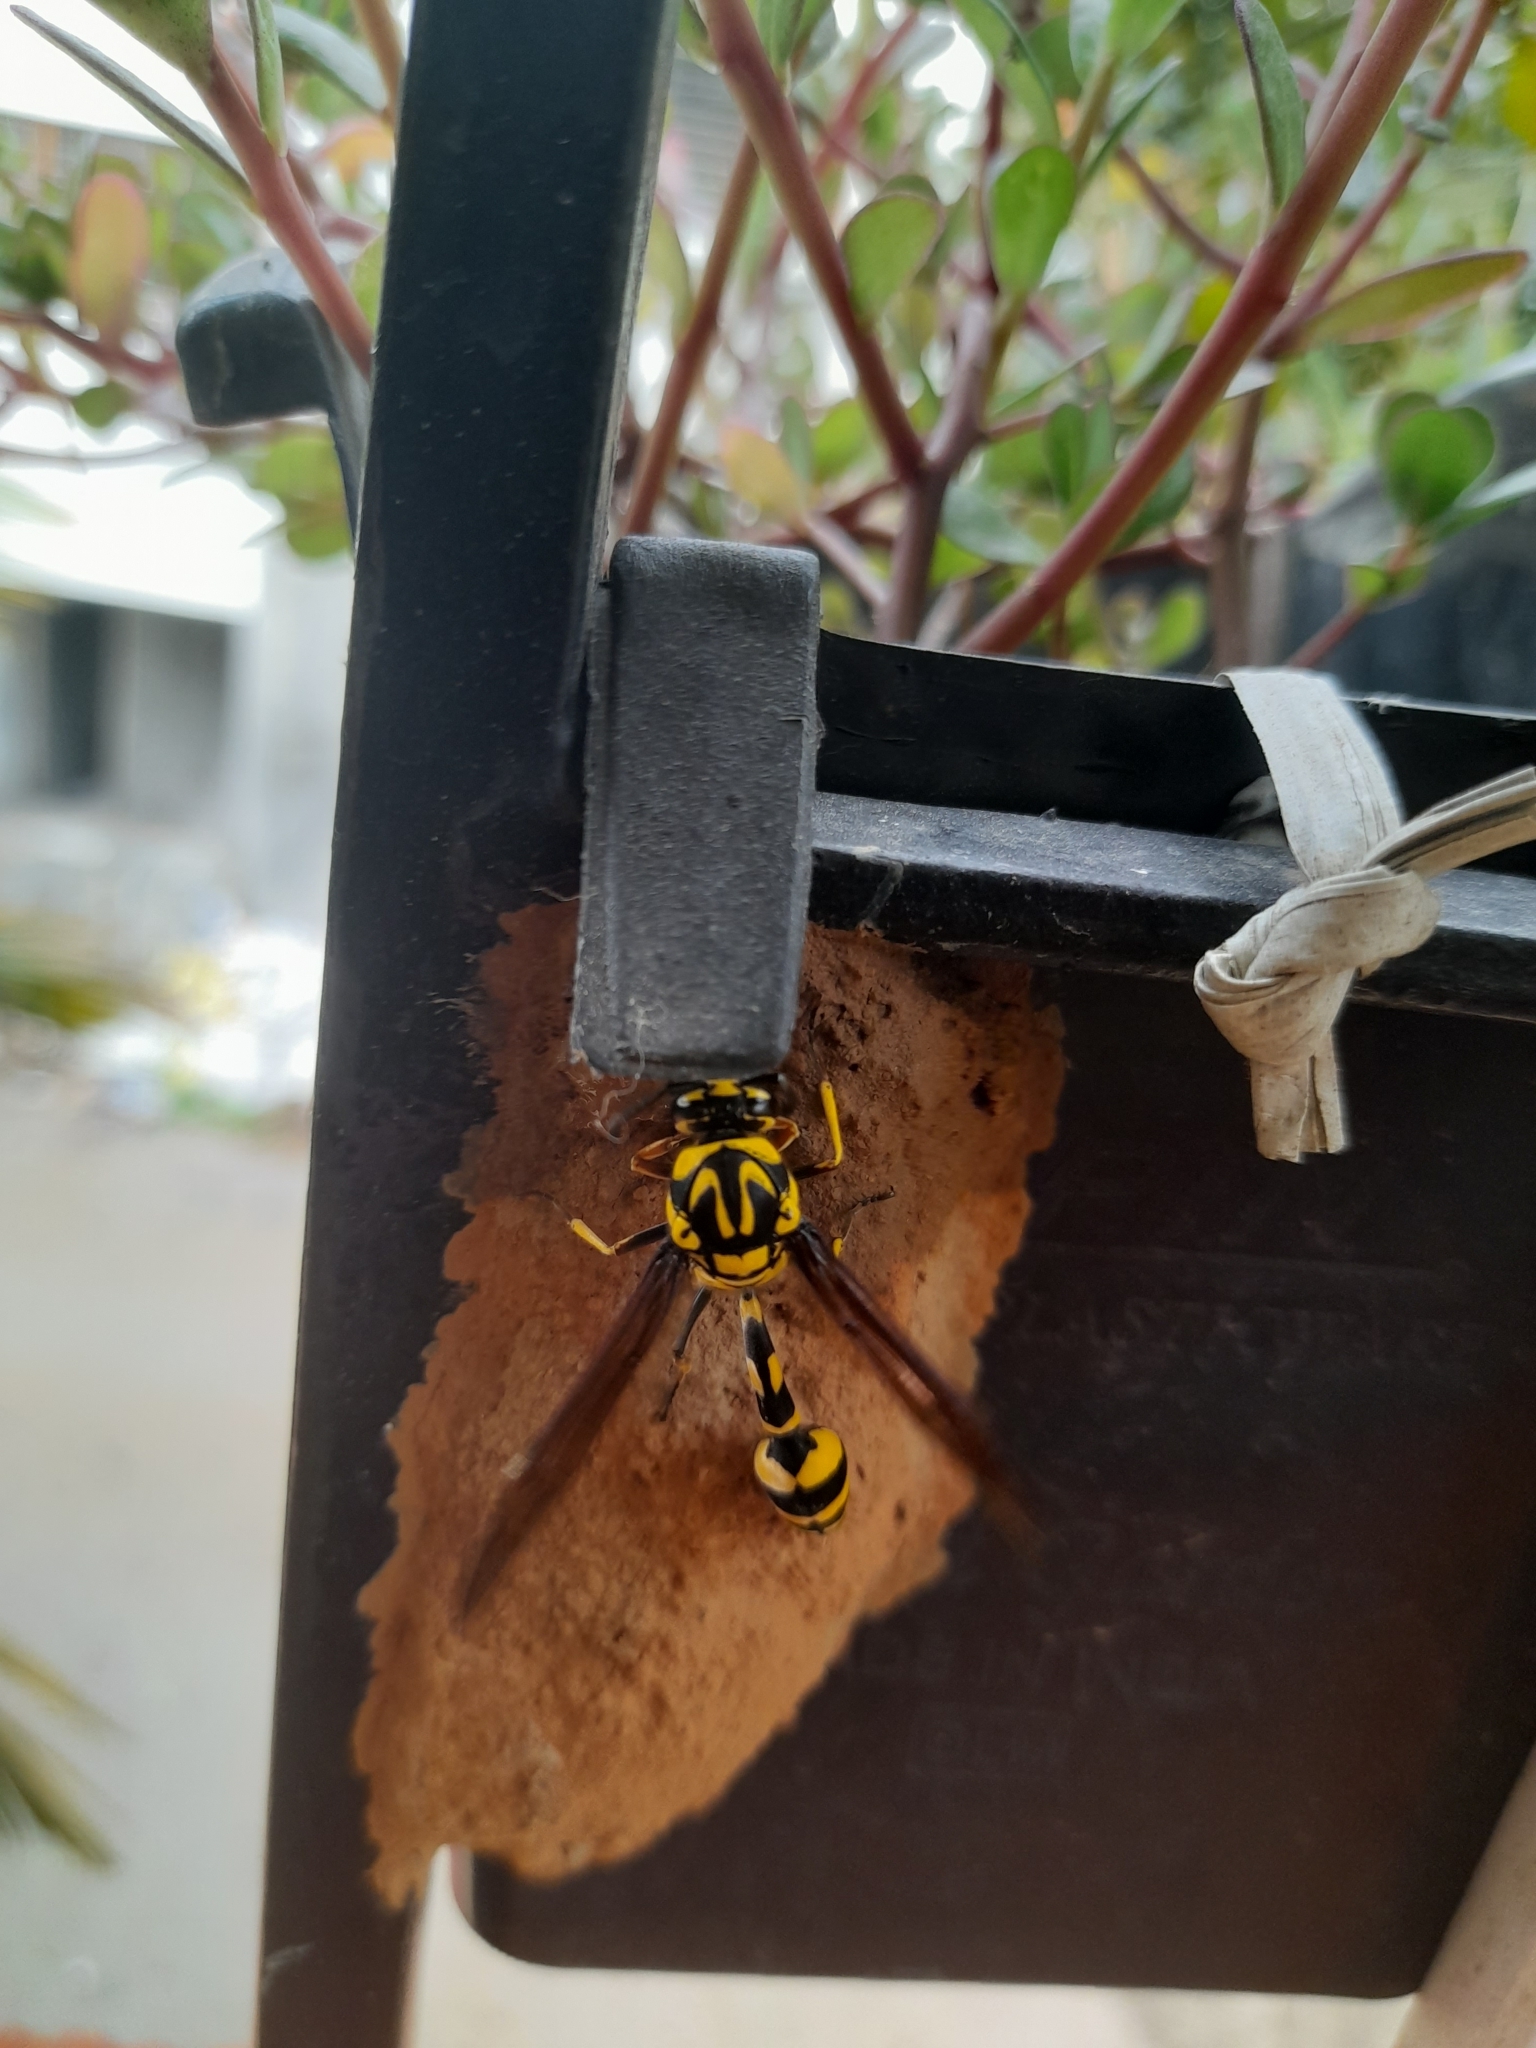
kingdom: Animalia
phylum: Arthropoda
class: Insecta
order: Hymenoptera
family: Eumenidae
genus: Phimenes
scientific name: Phimenes flavopictus
